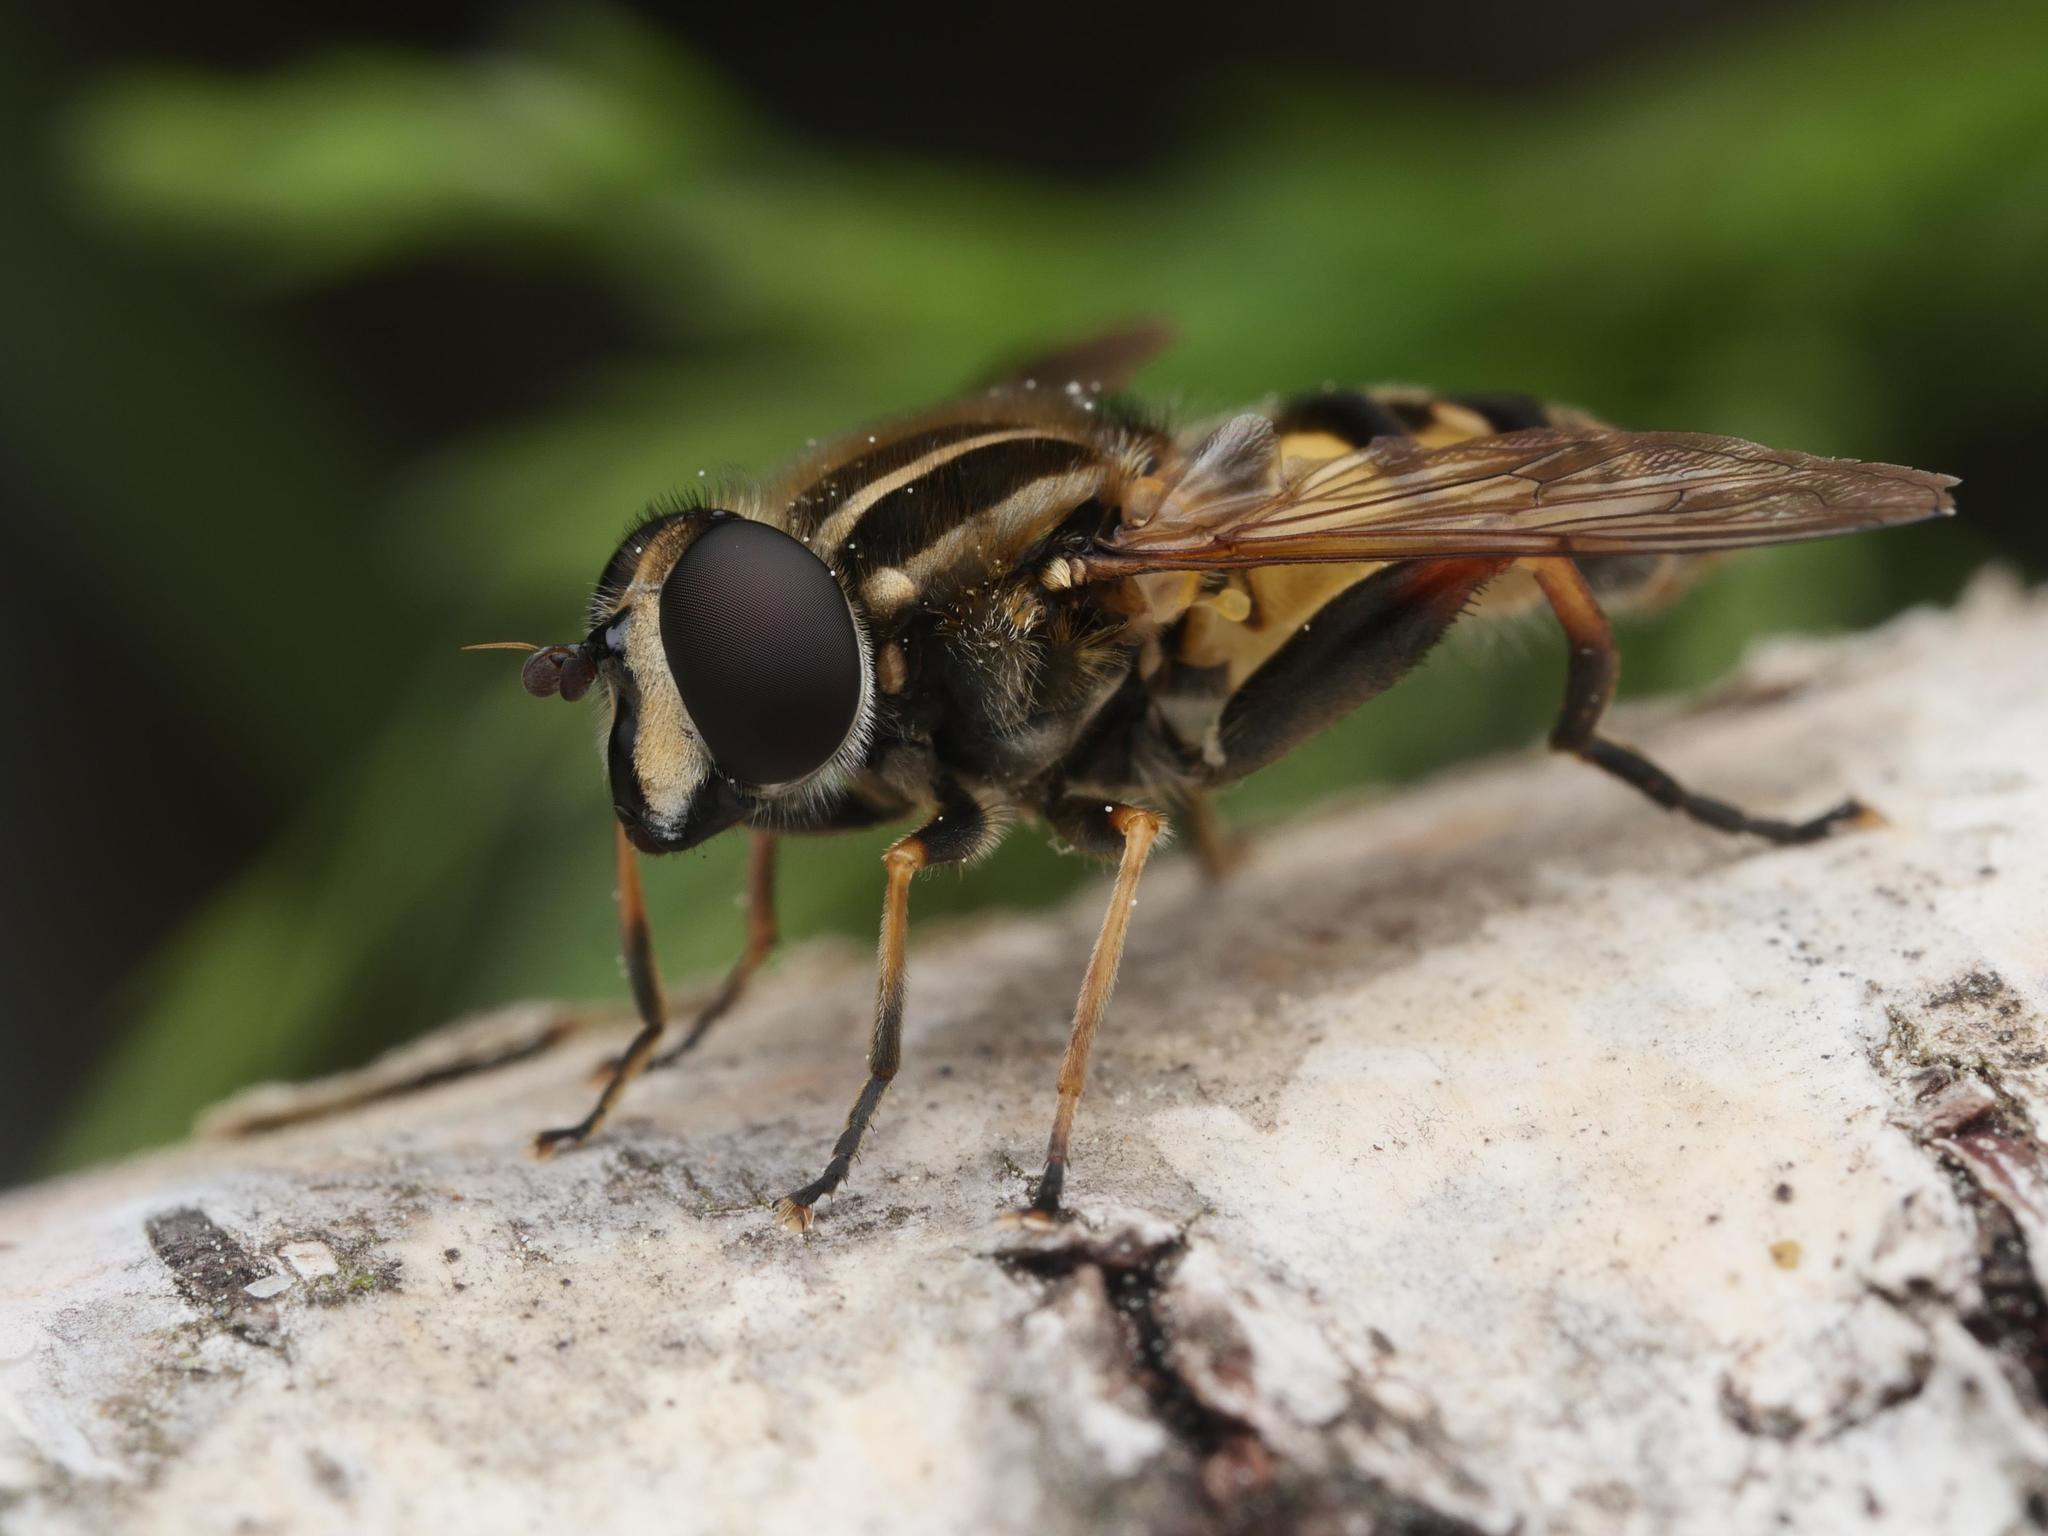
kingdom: Animalia
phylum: Arthropoda
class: Insecta
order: Diptera
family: Syrphidae
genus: Helophilus
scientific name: Helophilus pendulus
